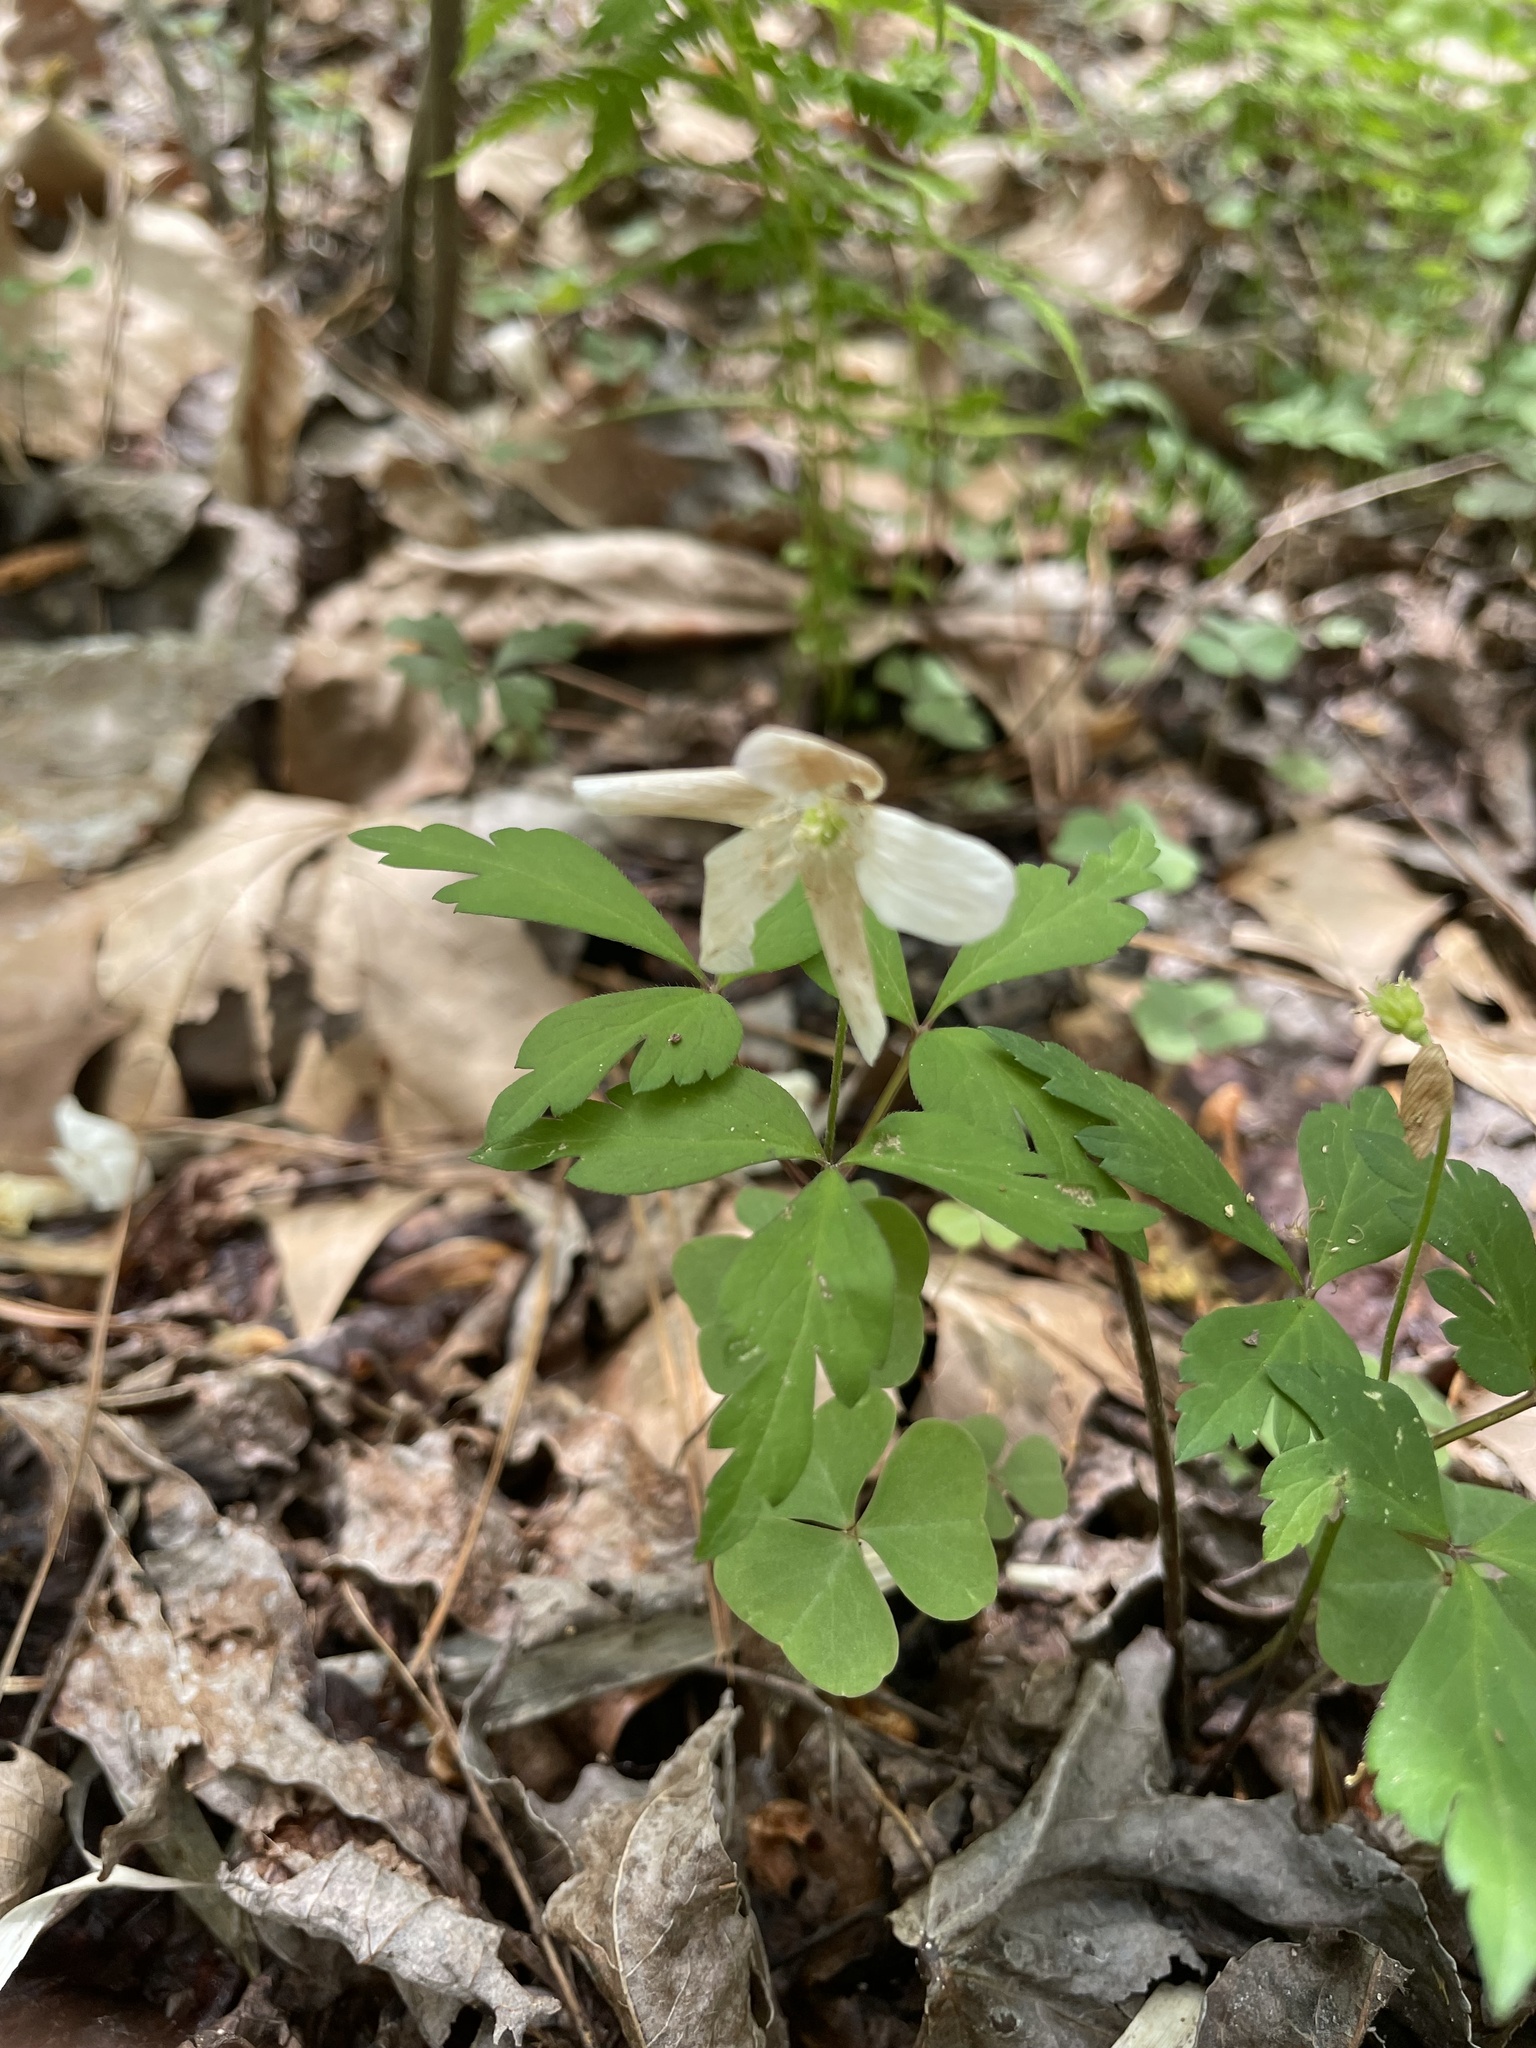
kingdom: Plantae
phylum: Tracheophyta
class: Magnoliopsida
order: Ranunculales
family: Ranunculaceae
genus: Anemone
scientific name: Anemone quinquefolia
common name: Wood anemone
